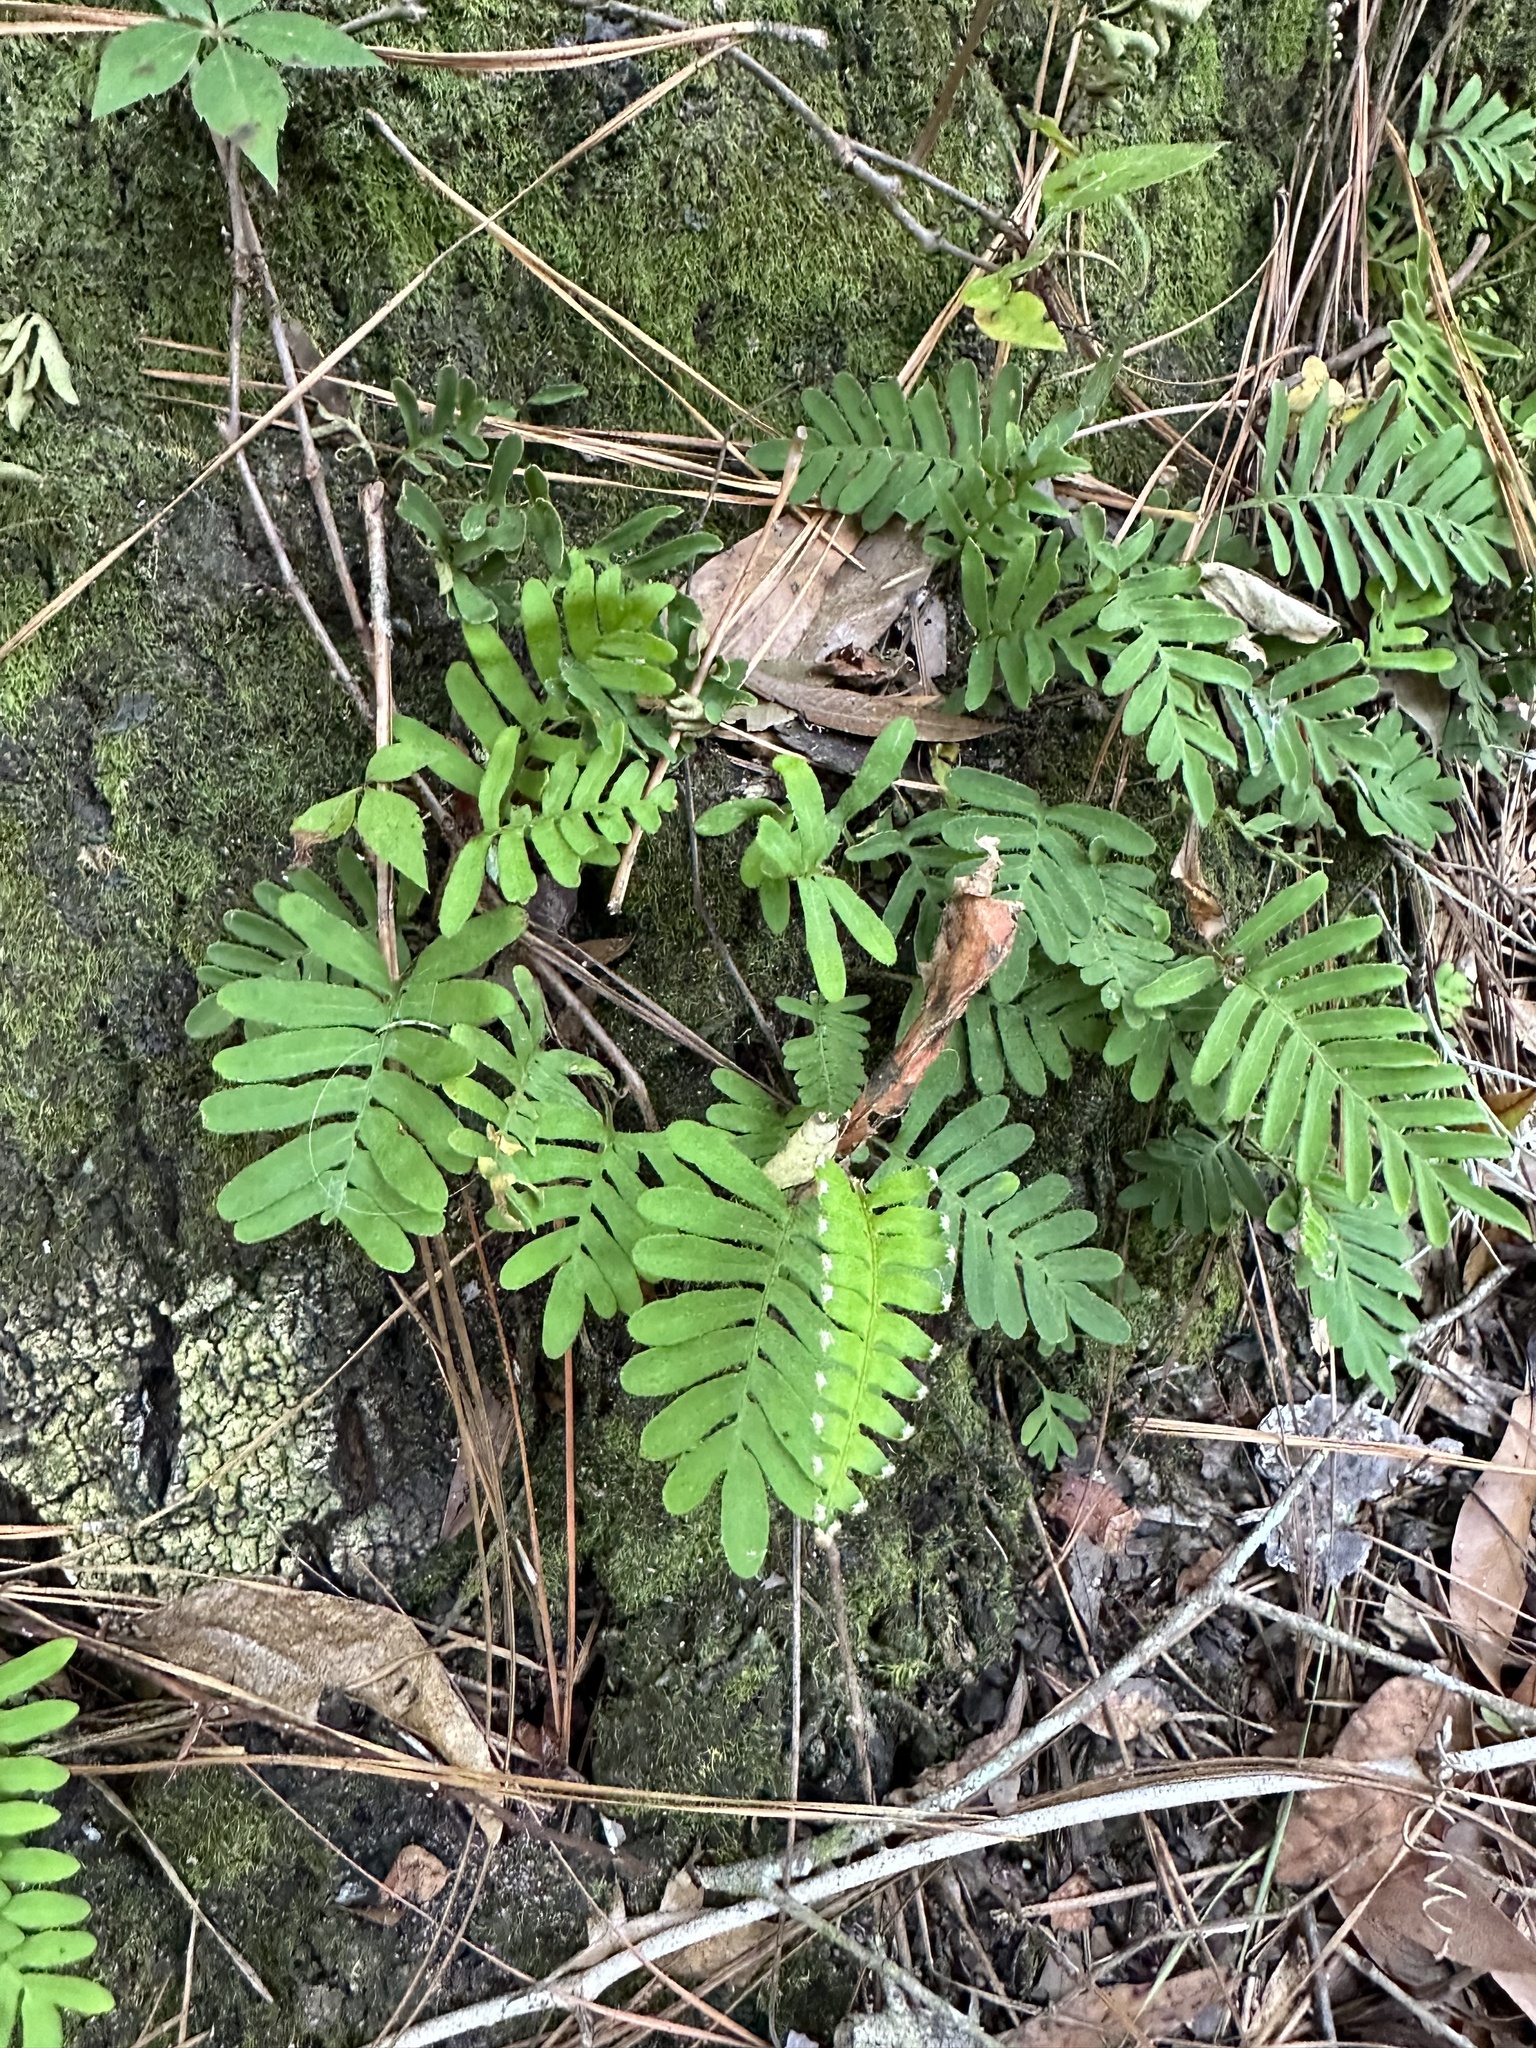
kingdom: Plantae
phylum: Tracheophyta
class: Polypodiopsida
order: Polypodiales
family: Polypodiaceae
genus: Pleopeltis
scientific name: Pleopeltis michauxiana
